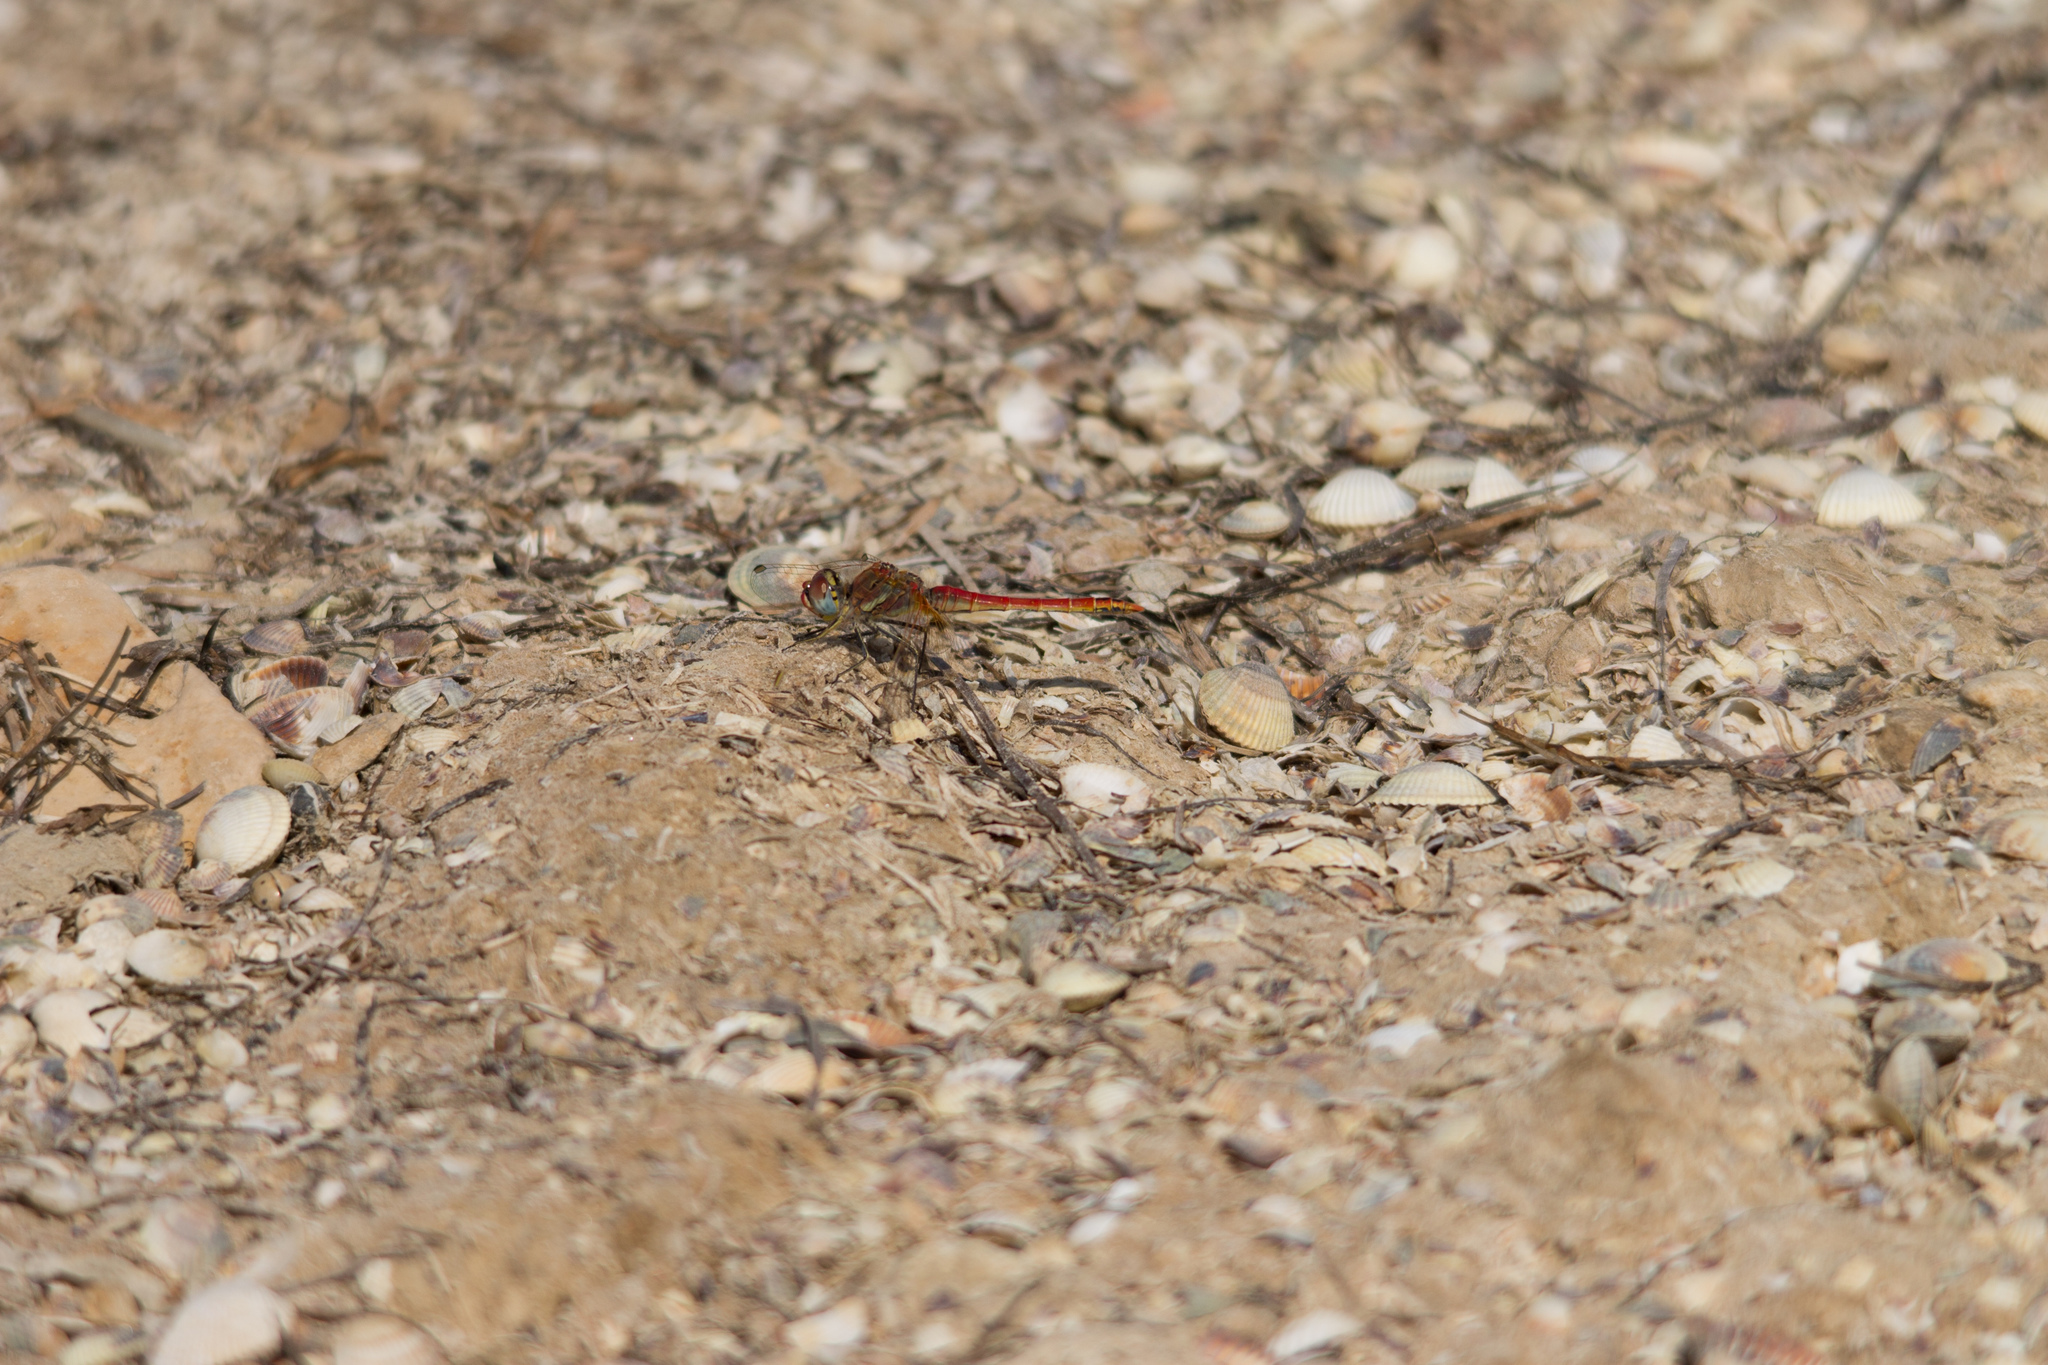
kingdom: Animalia
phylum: Arthropoda
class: Insecta
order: Odonata
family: Libellulidae
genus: Sympetrum
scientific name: Sympetrum fonscolombii
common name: Red-veined darter
